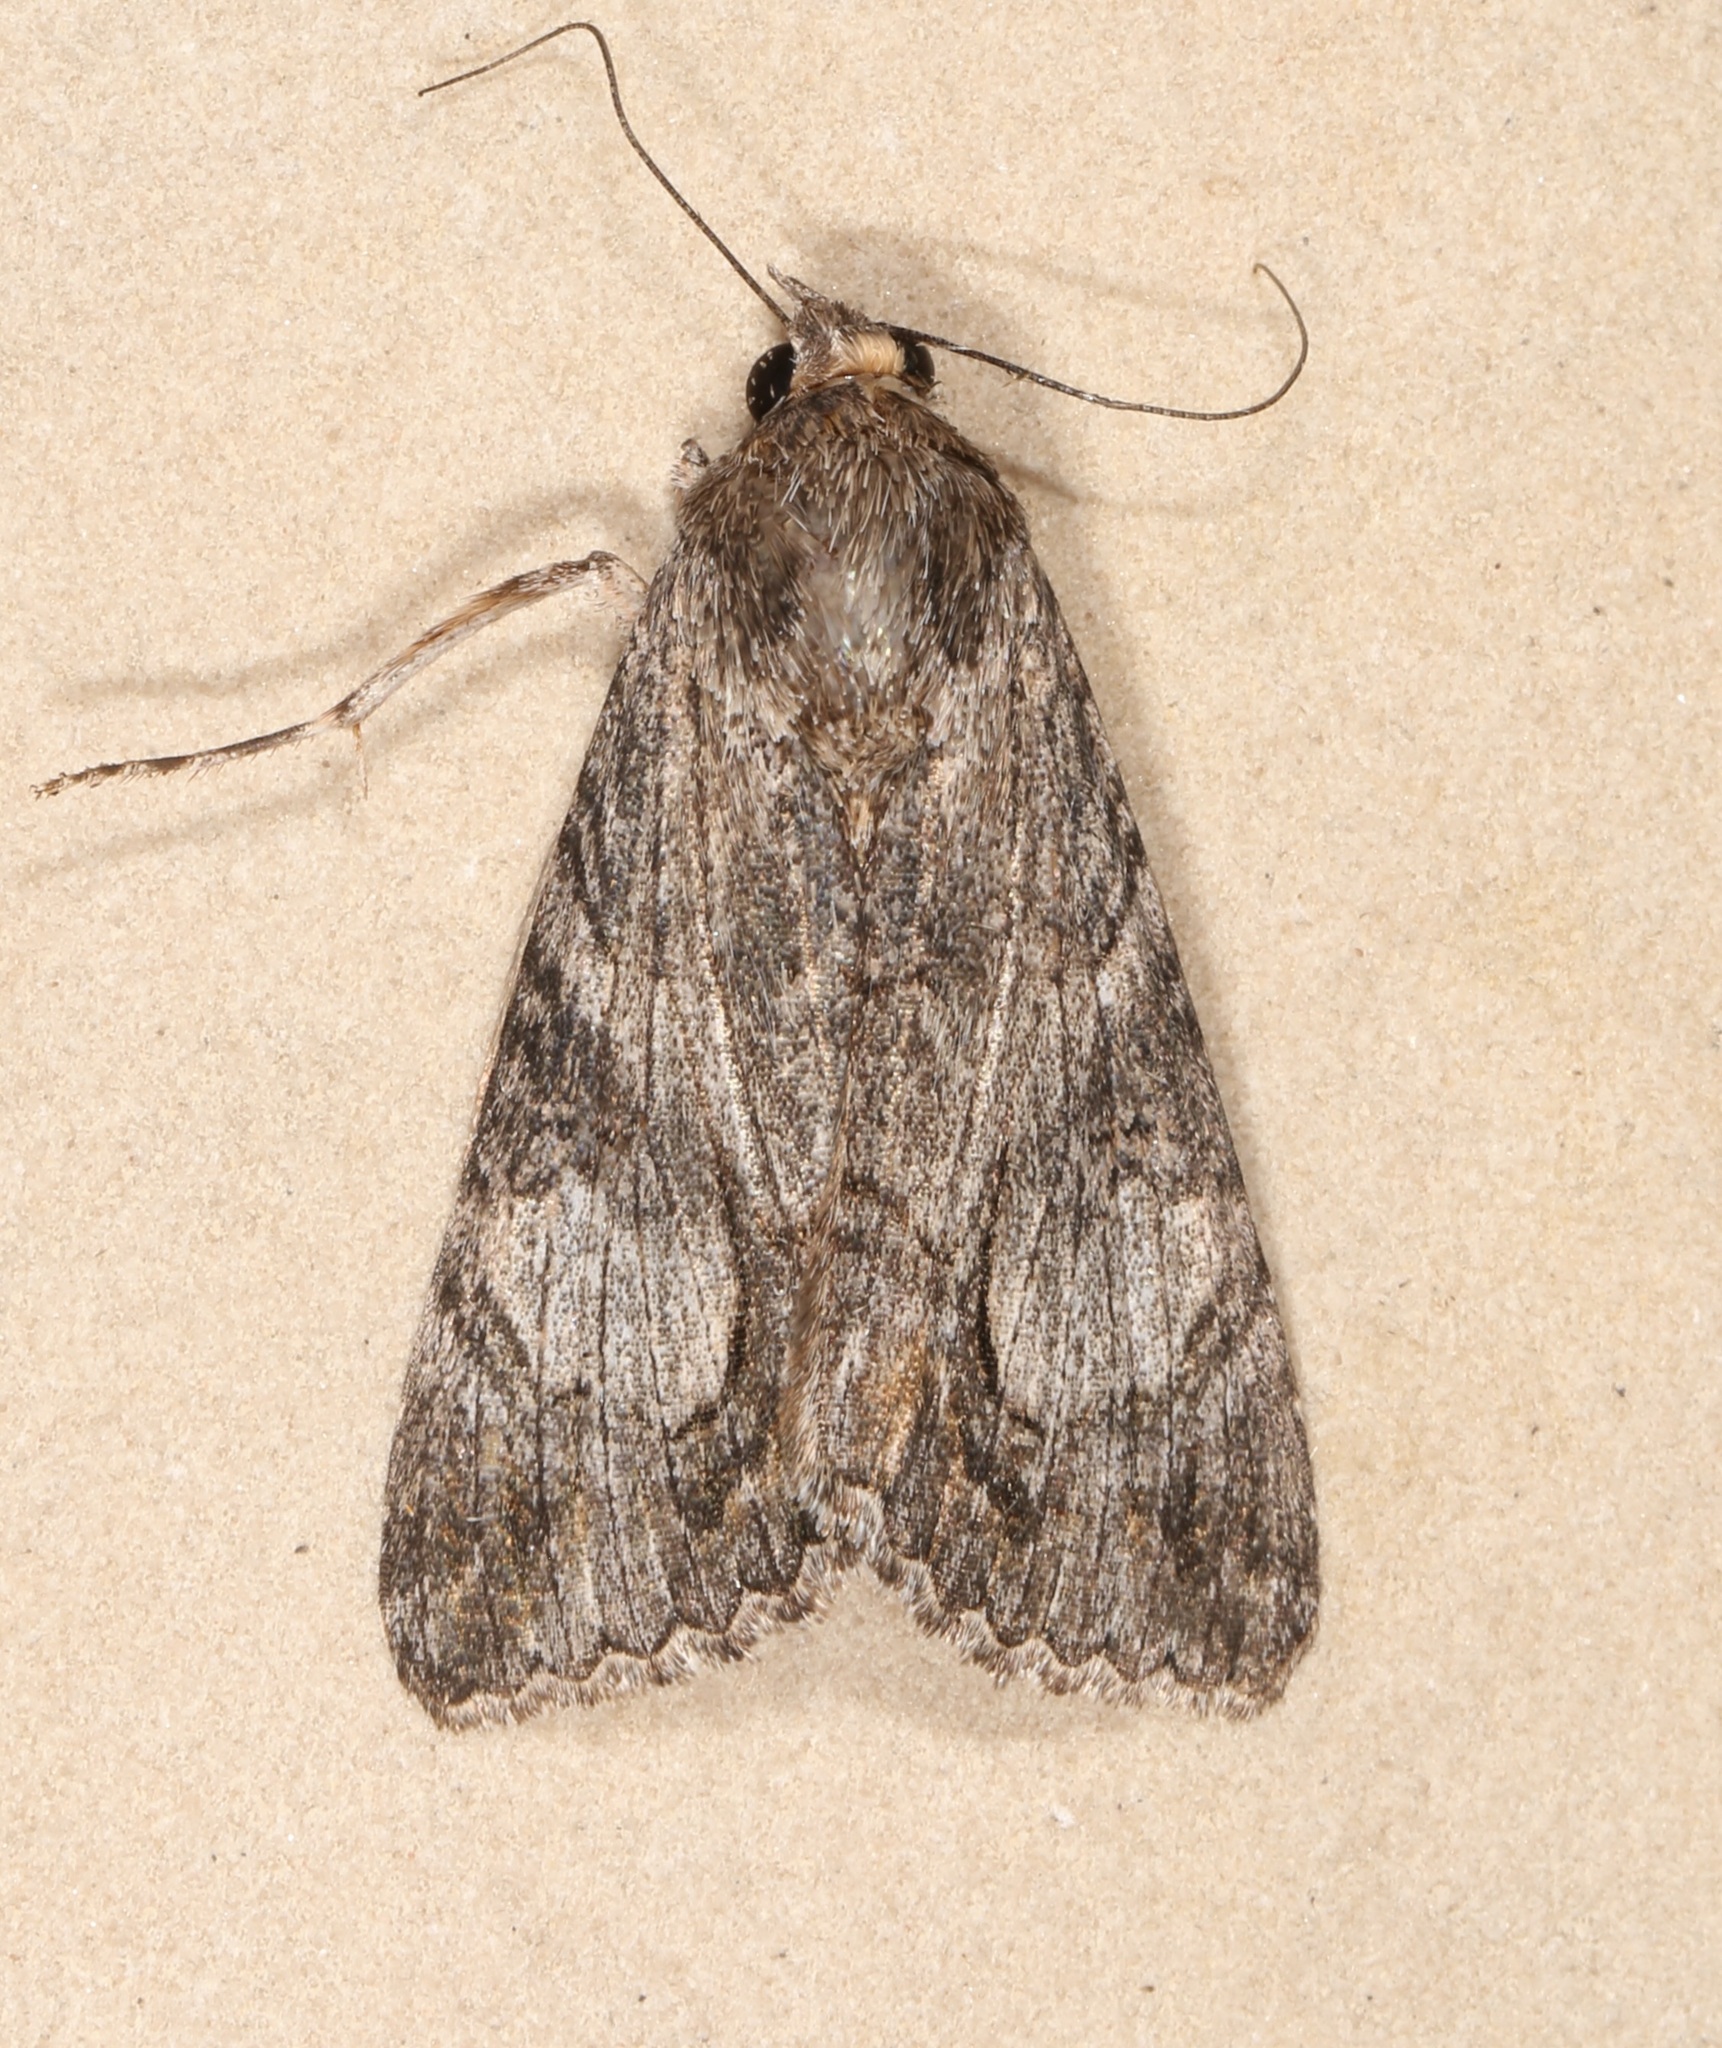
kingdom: Animalia
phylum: Arthropoda
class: Insecta
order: Lepidoptera
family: Erebidae
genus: Melipotis
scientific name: Melipotis jucunda
